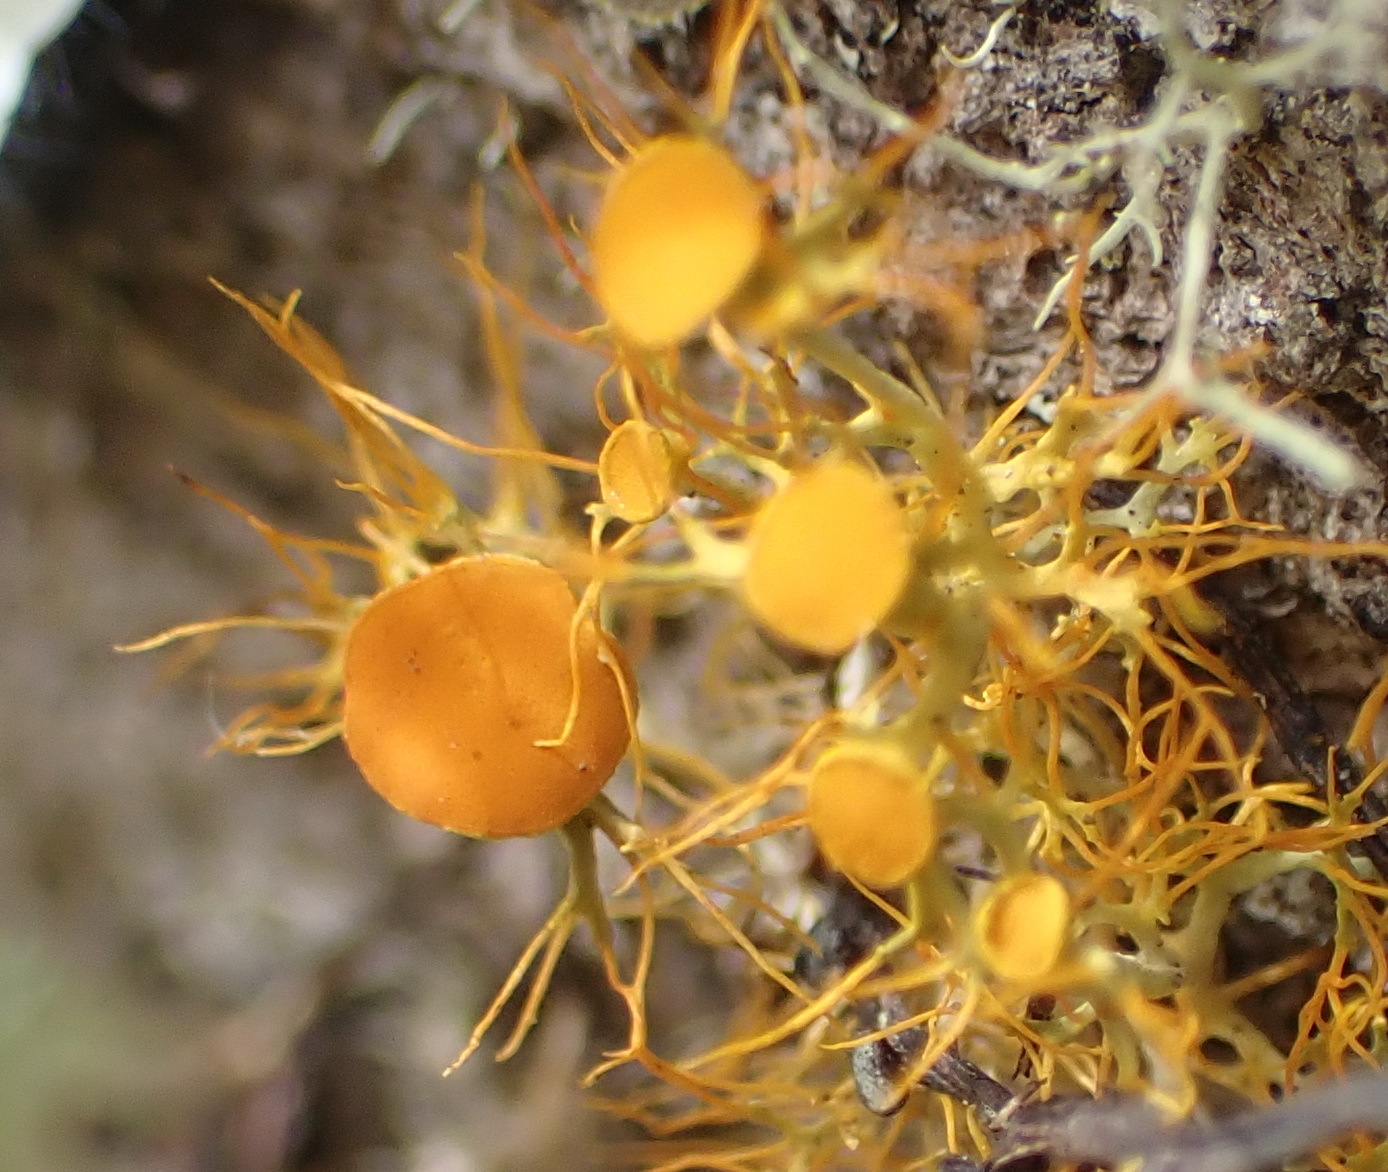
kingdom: Fungi
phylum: Ascomycota
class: Lecanoromycetes
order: Teloschistales
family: Teloschistaceae
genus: Teloschistes
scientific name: Teloschistes exilis
